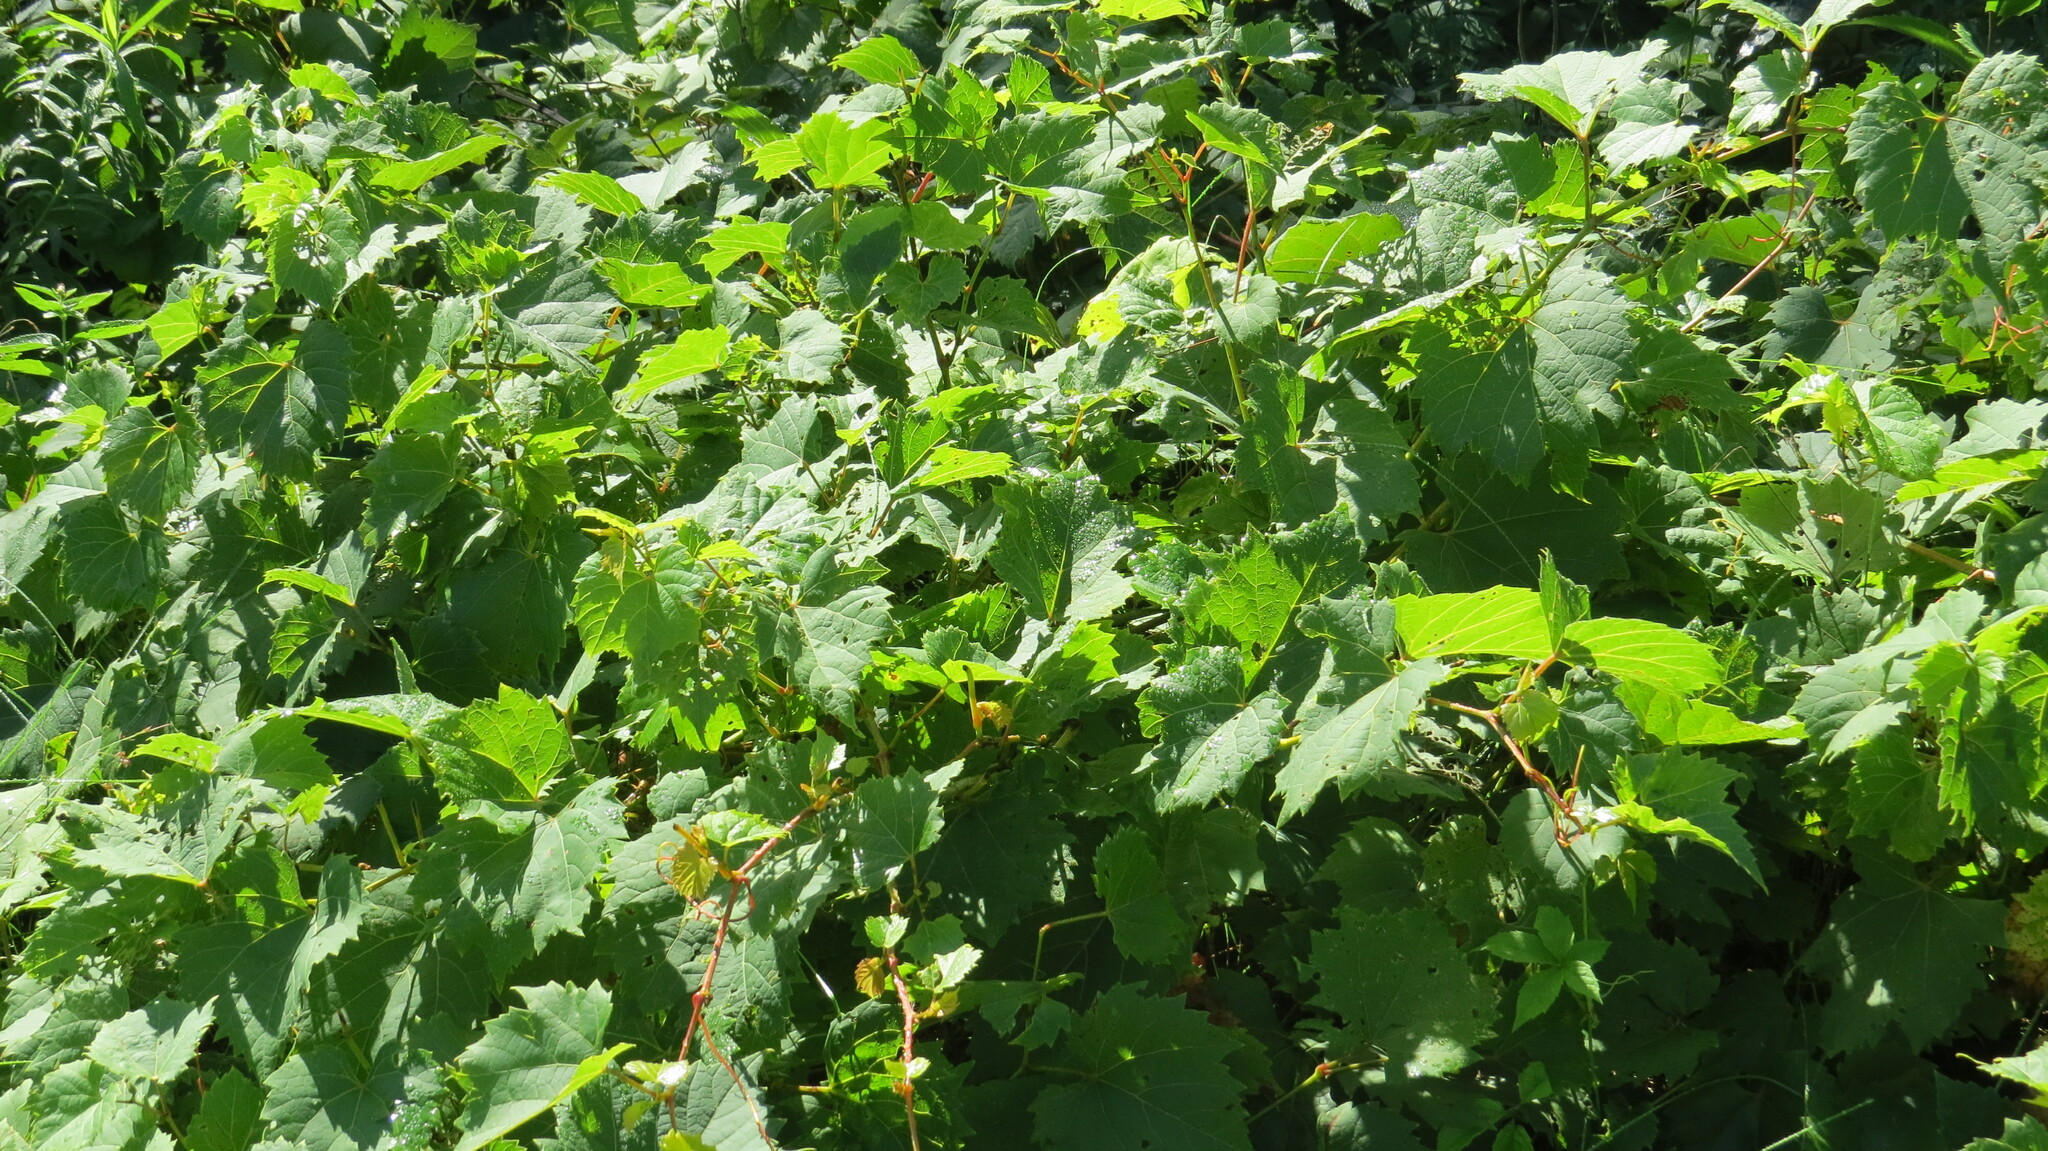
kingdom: Plantae
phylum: Tracheophyta
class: Magnoliopsida
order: Vitales
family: Vitaceae
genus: Vitis
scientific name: Vitis riparia
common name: Frost grape
